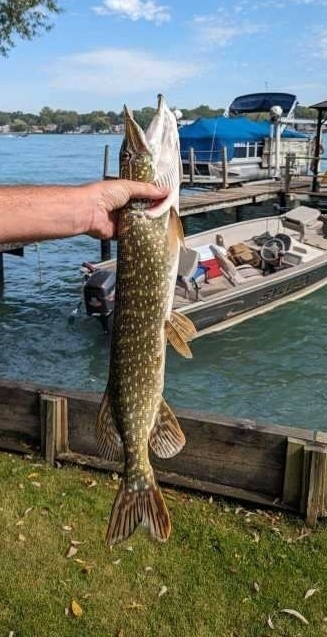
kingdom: Animalia
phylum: Chordata
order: Esociformes
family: Esocidae
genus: Esox
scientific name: Esox lucius
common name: Northern pike
